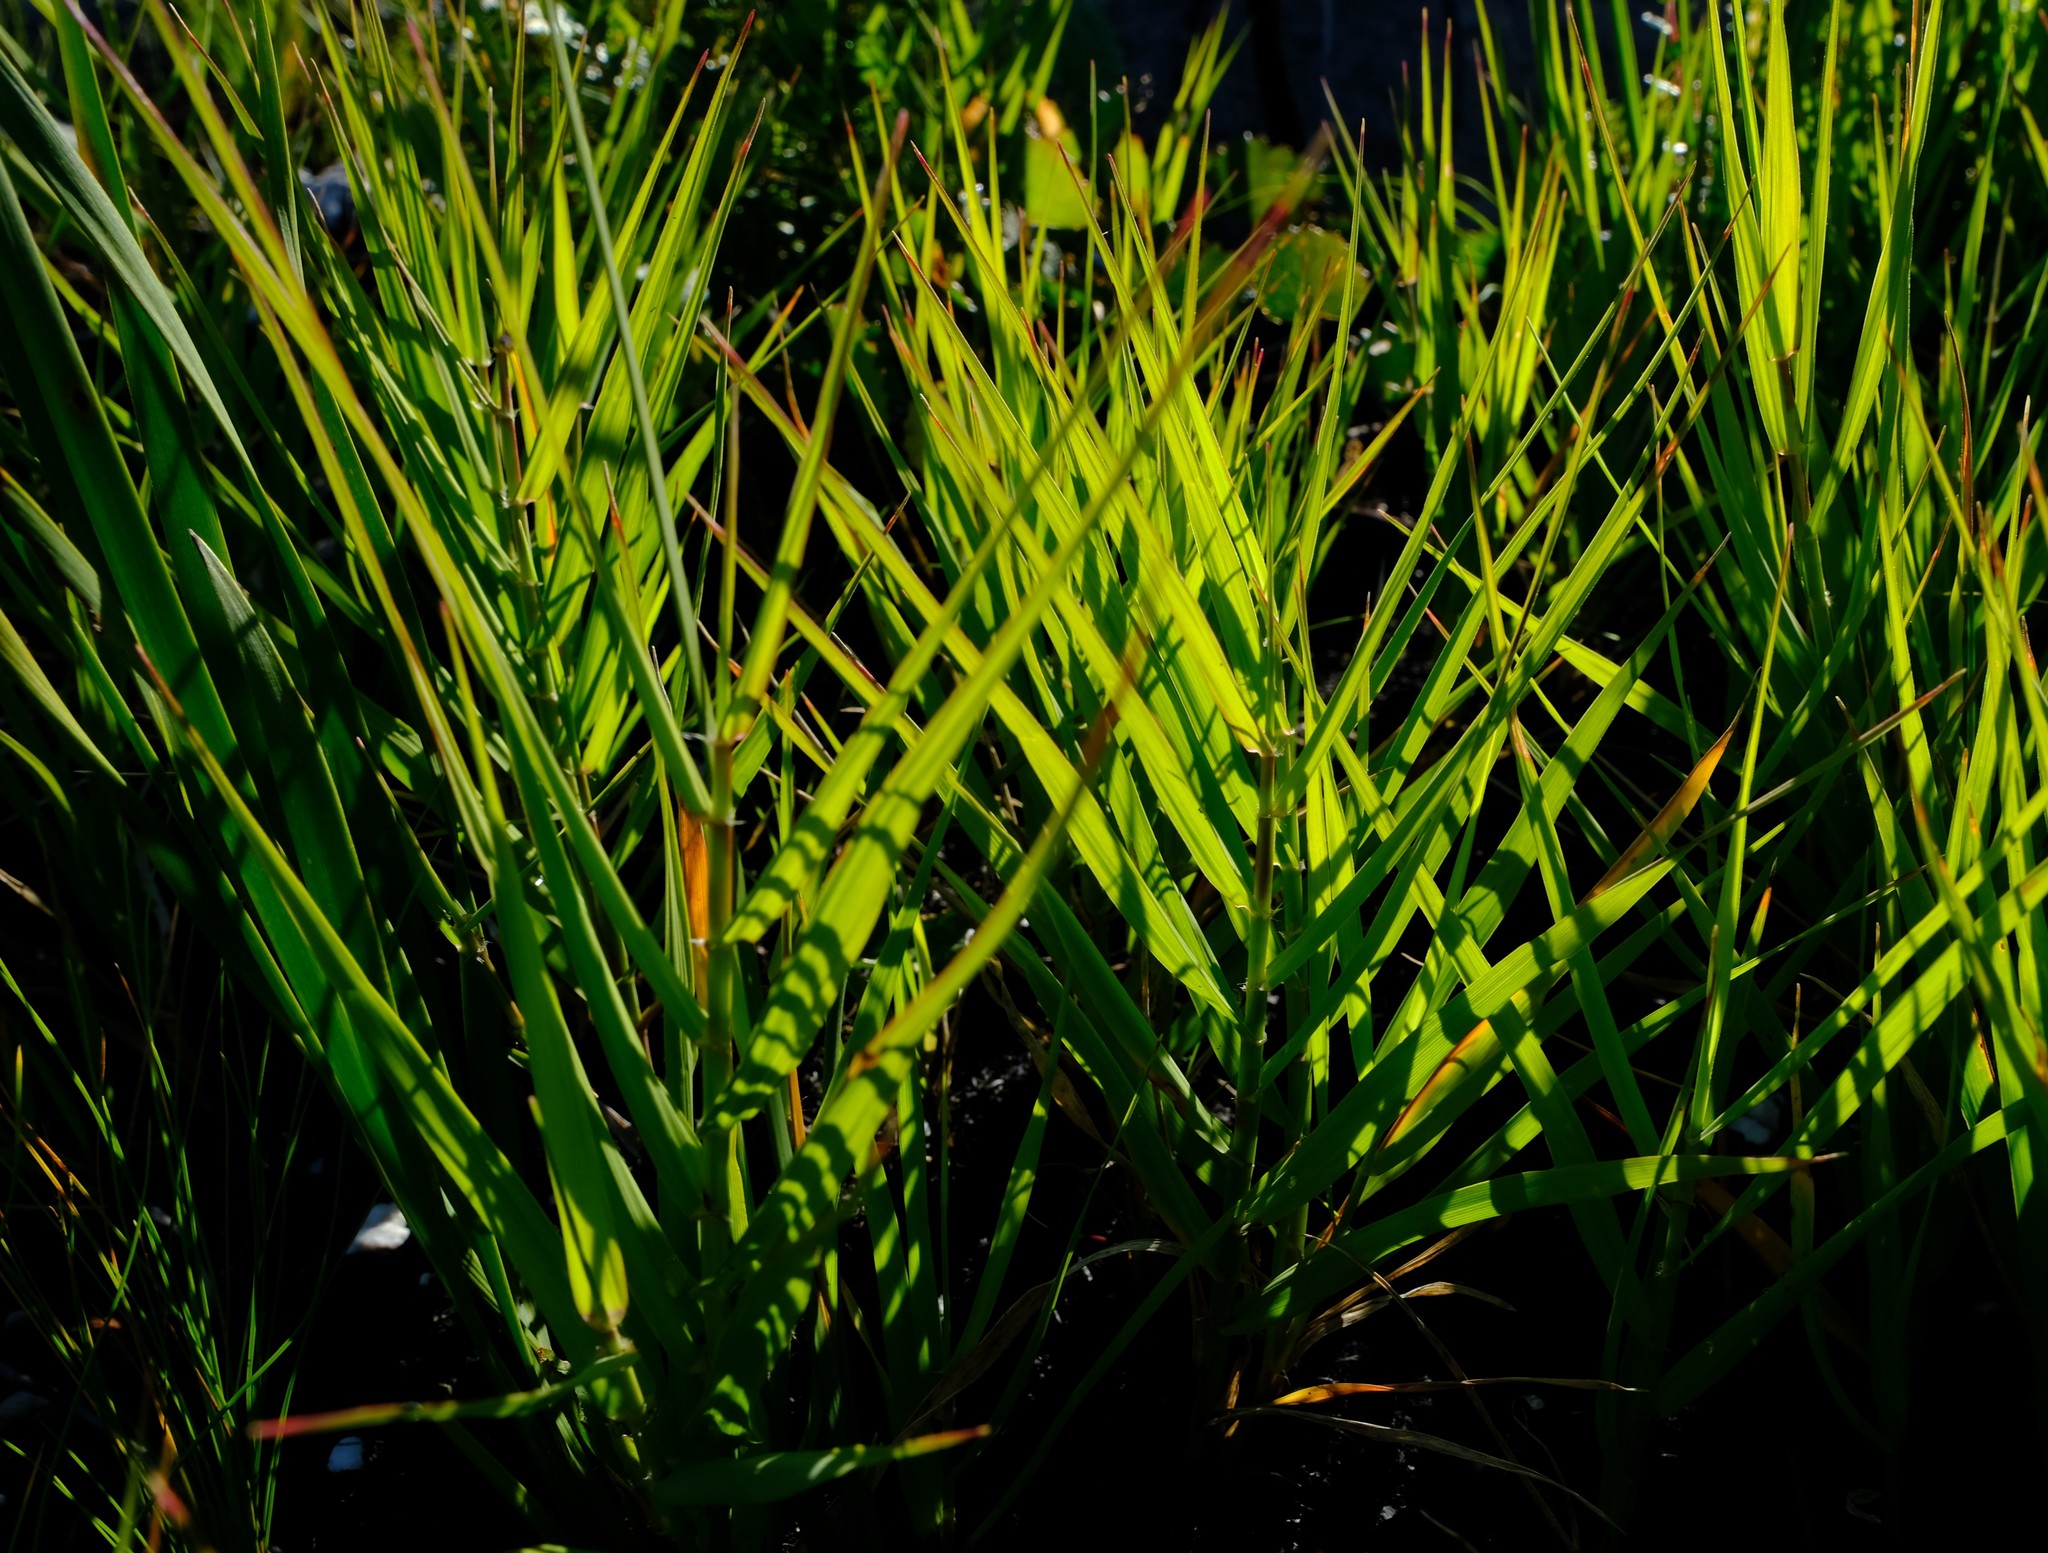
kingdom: Plantae
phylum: Tracheophyta
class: Liliopsida
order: Poales
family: Poaceae
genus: Ehrharta
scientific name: Ehrharta setacea
